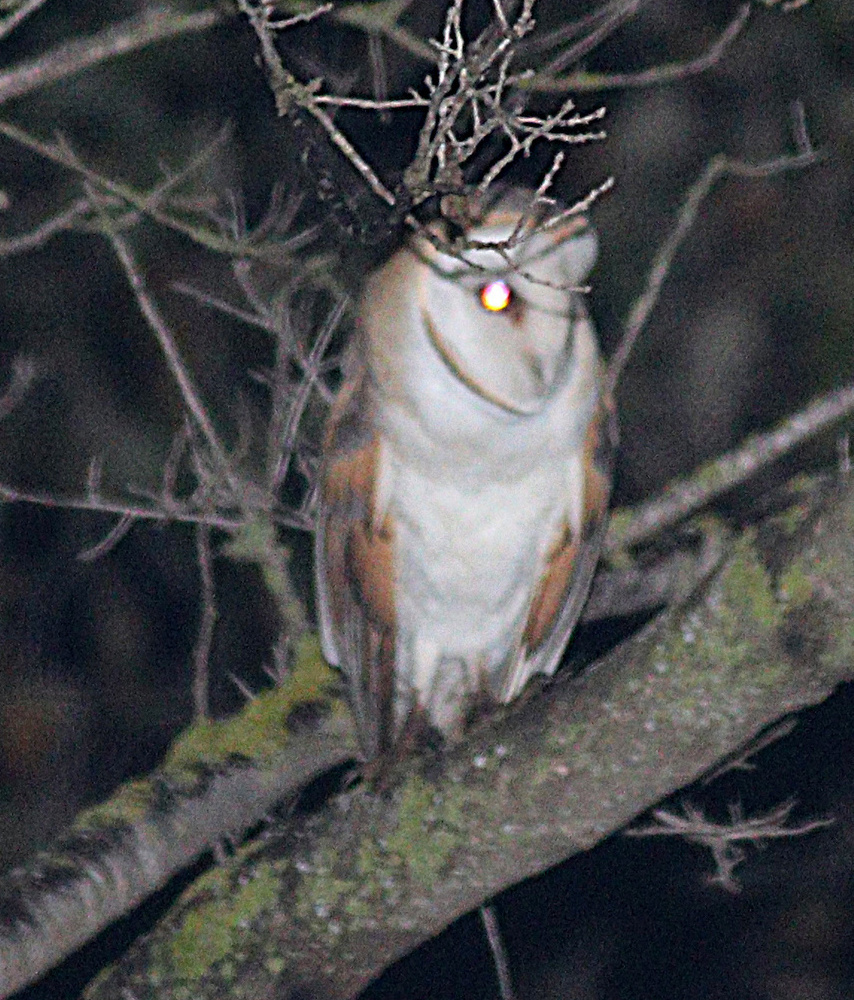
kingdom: Animalia
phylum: Chordata
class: Aves
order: Strigiformes
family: Tytonidae
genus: Tyto
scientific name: Tyto alba
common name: Barn owl
